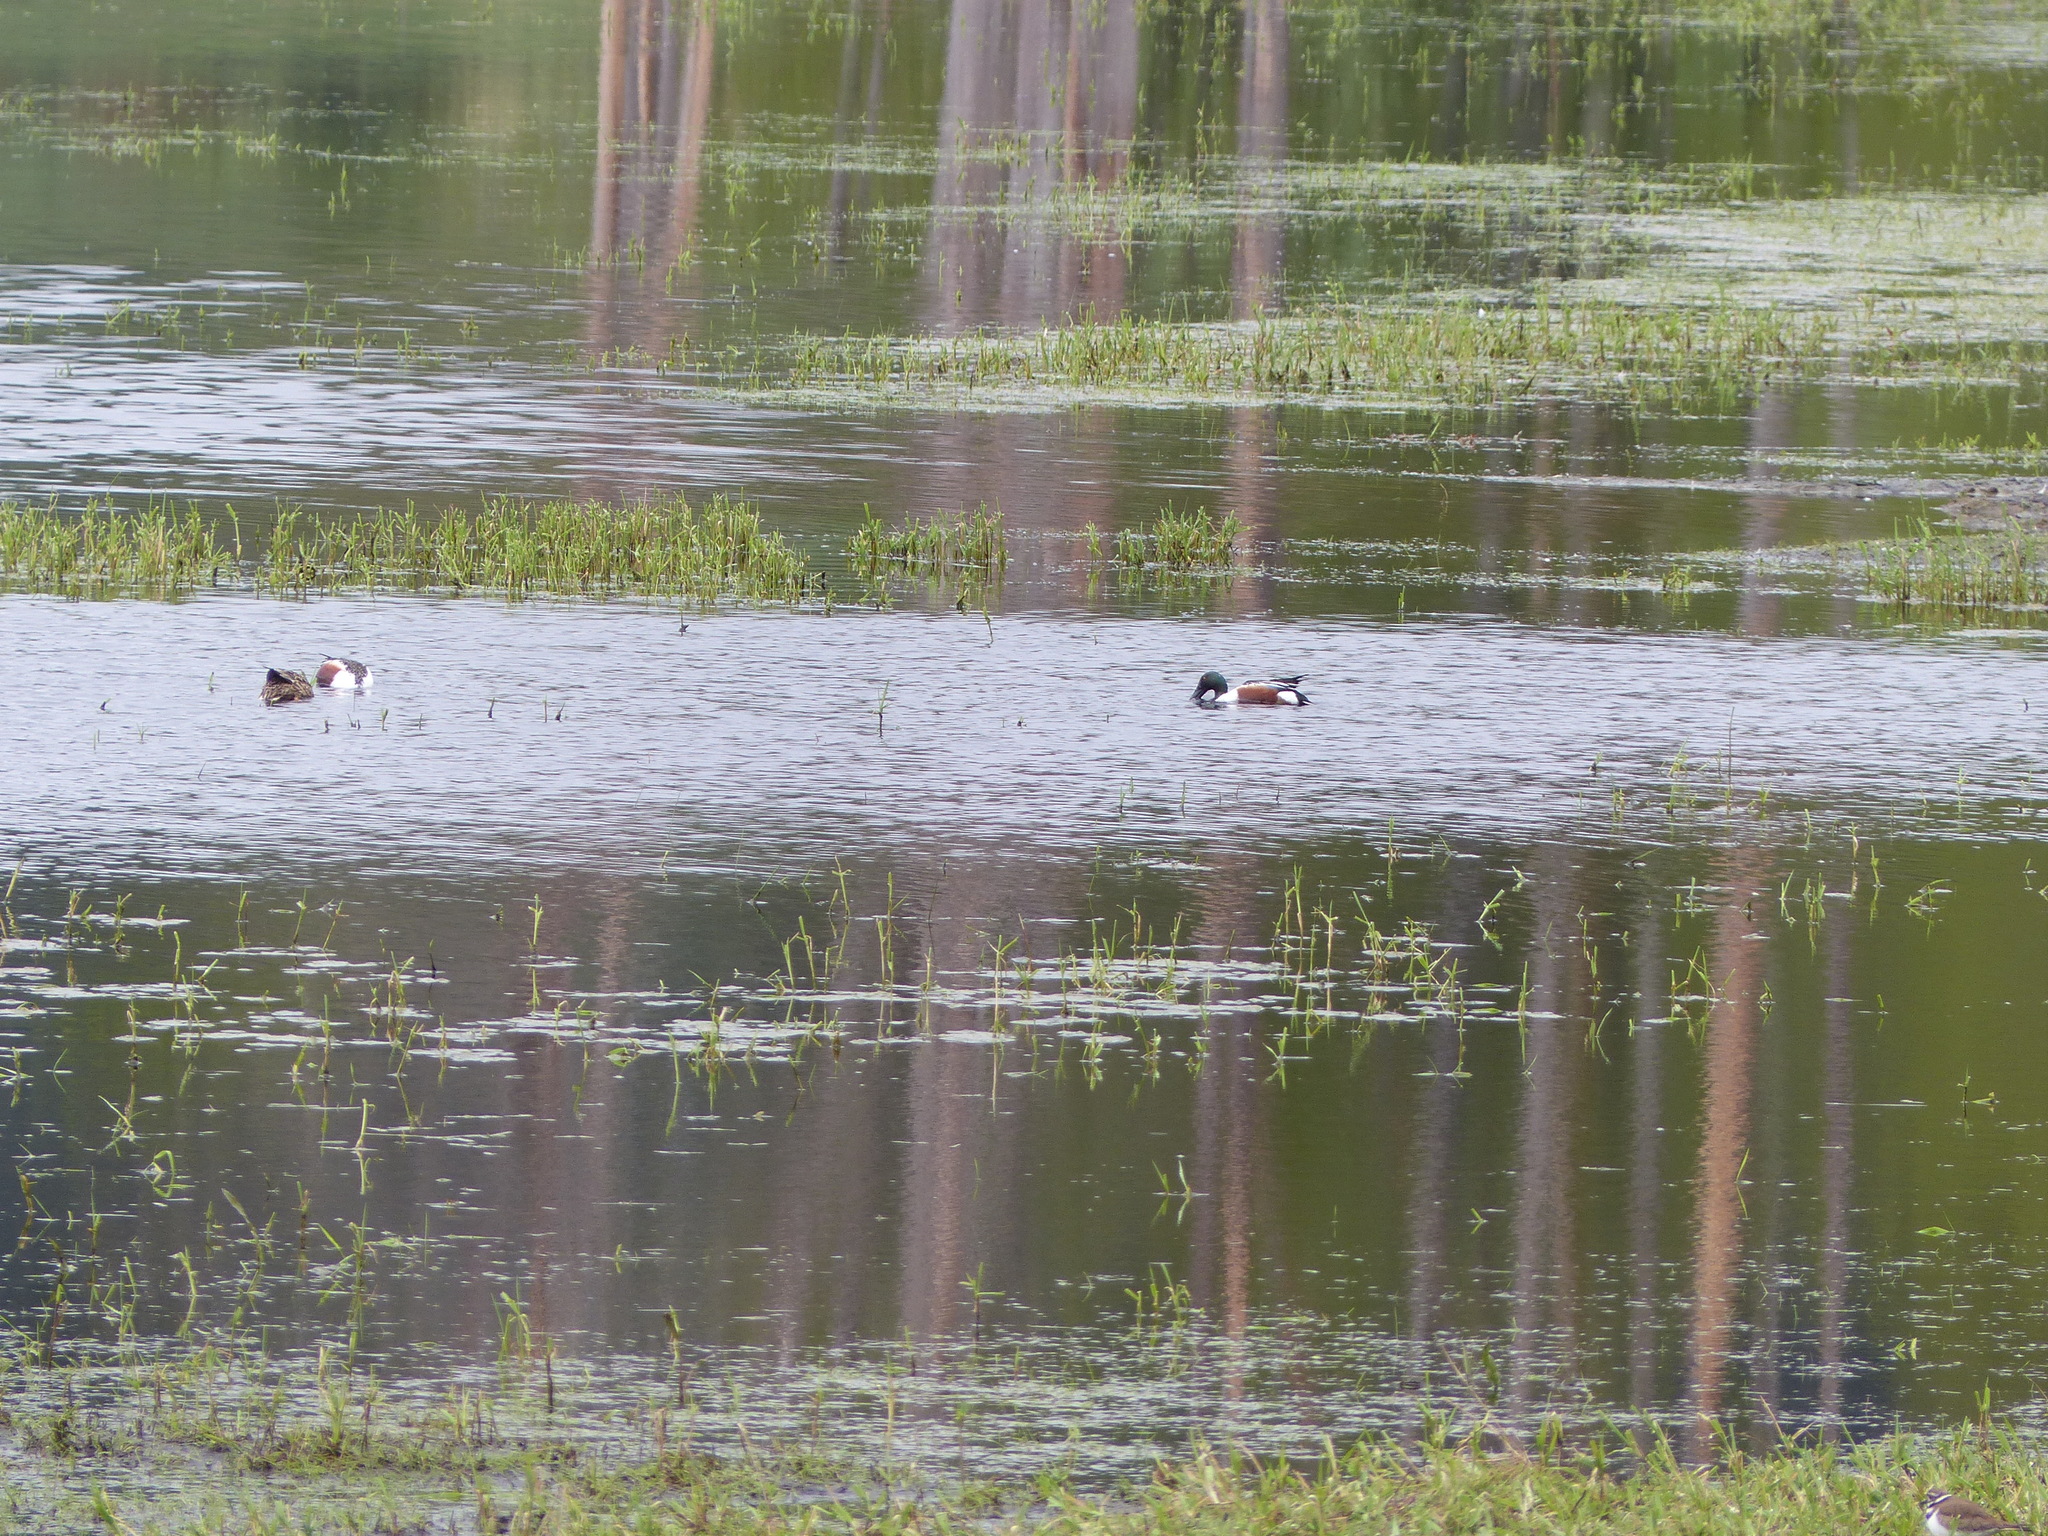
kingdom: Animalia
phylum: Chordata
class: Aves
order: Anseriformes
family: Anatidae
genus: Spatula
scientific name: Spatula clypeata
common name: Northern shoveler
